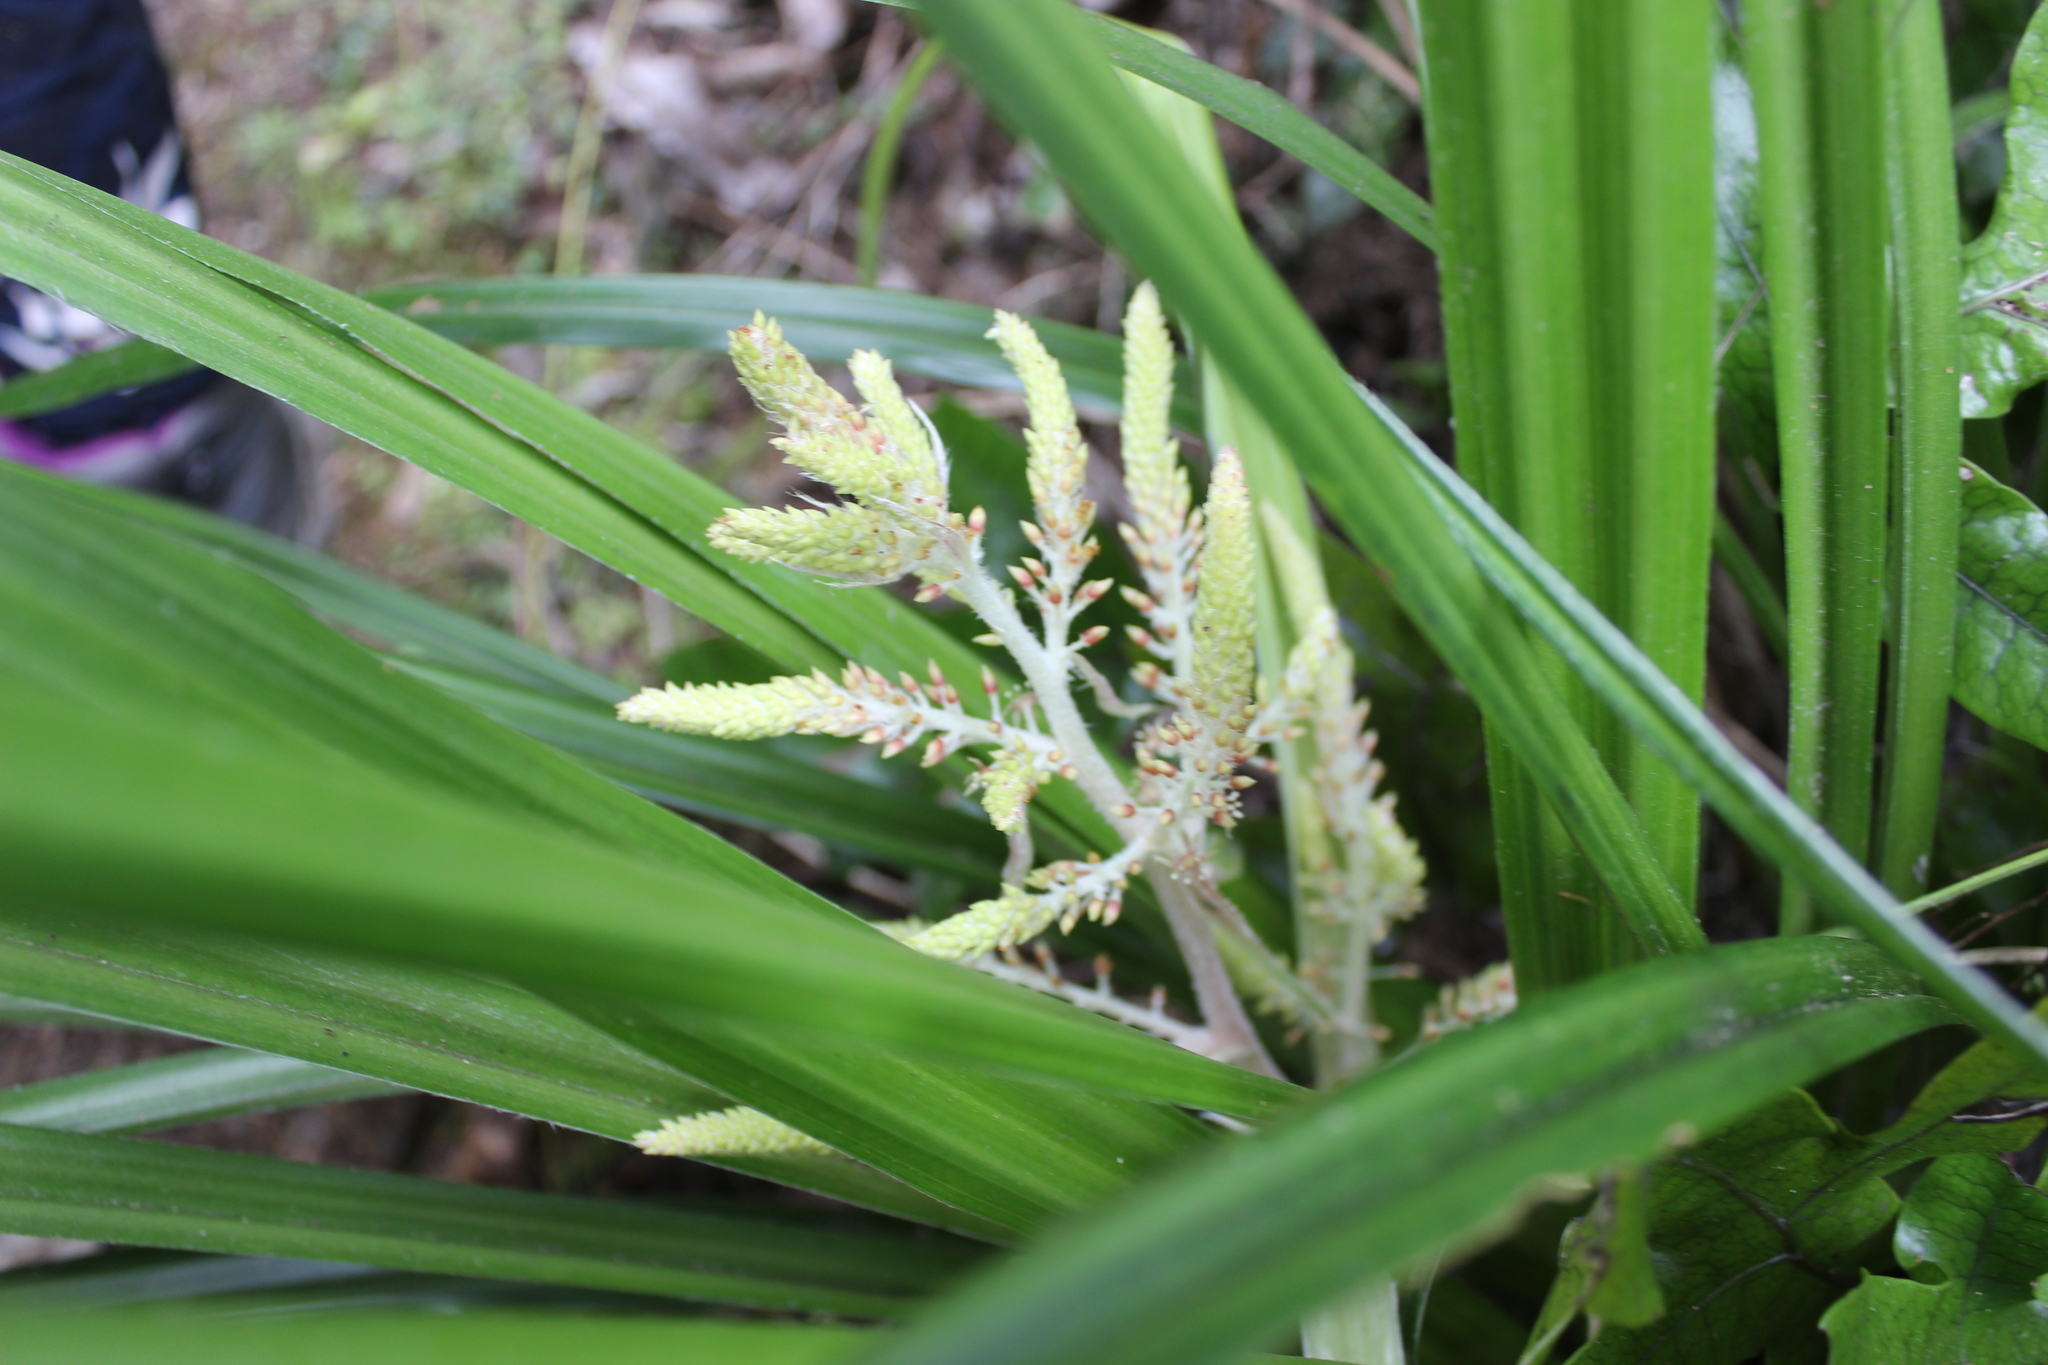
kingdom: Plantae
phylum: Tracheophyta
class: Liliopsida
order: Asparagales
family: Asteliaceae
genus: Astelia
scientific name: Astelia solandri
